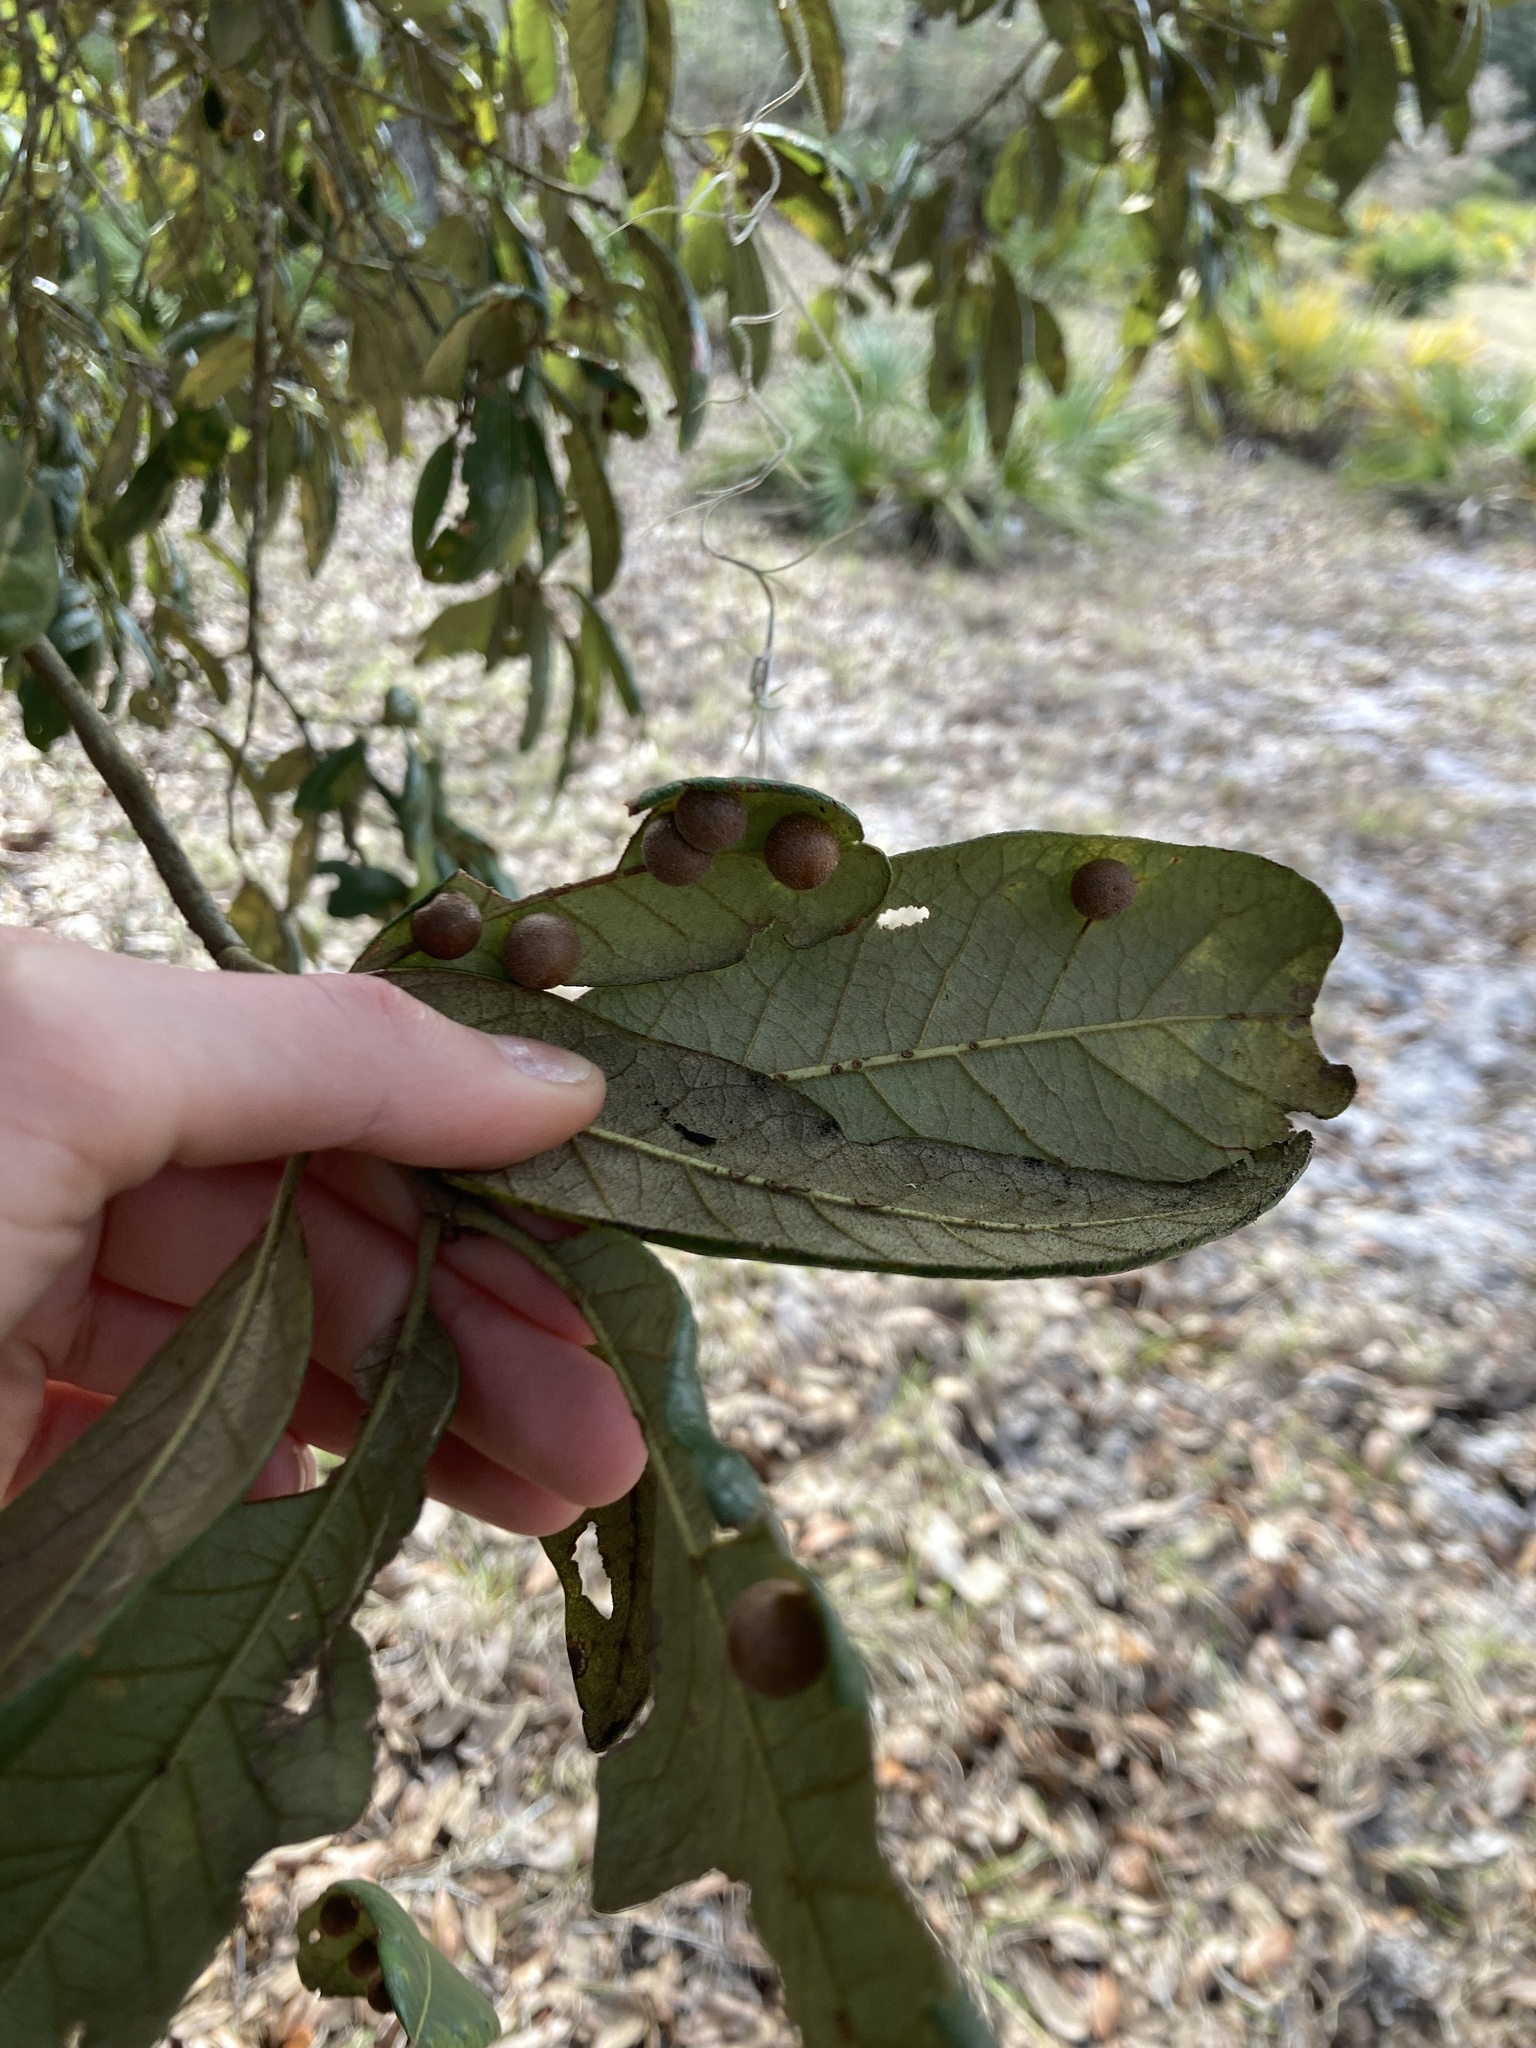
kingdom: Animalia
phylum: Arthropoda
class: Insecta
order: Hymenoptera
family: Cynipidae
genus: Belonocnema
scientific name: Belonocnema treatae
